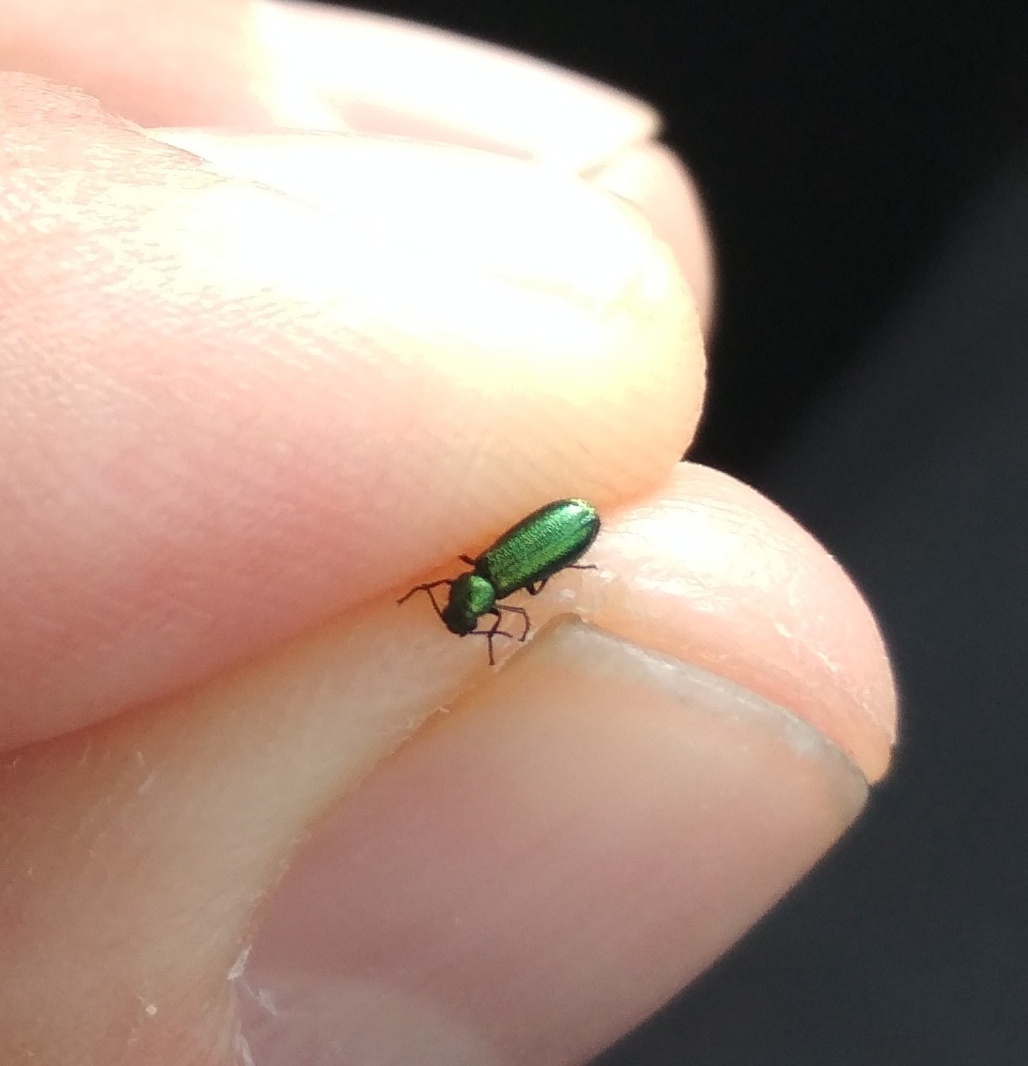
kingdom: Animalia
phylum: Arthropoda
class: Insecta
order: Coleoptera
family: Dasytidae
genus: Psilothrix
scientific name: Psilothrix viridicoerulea
